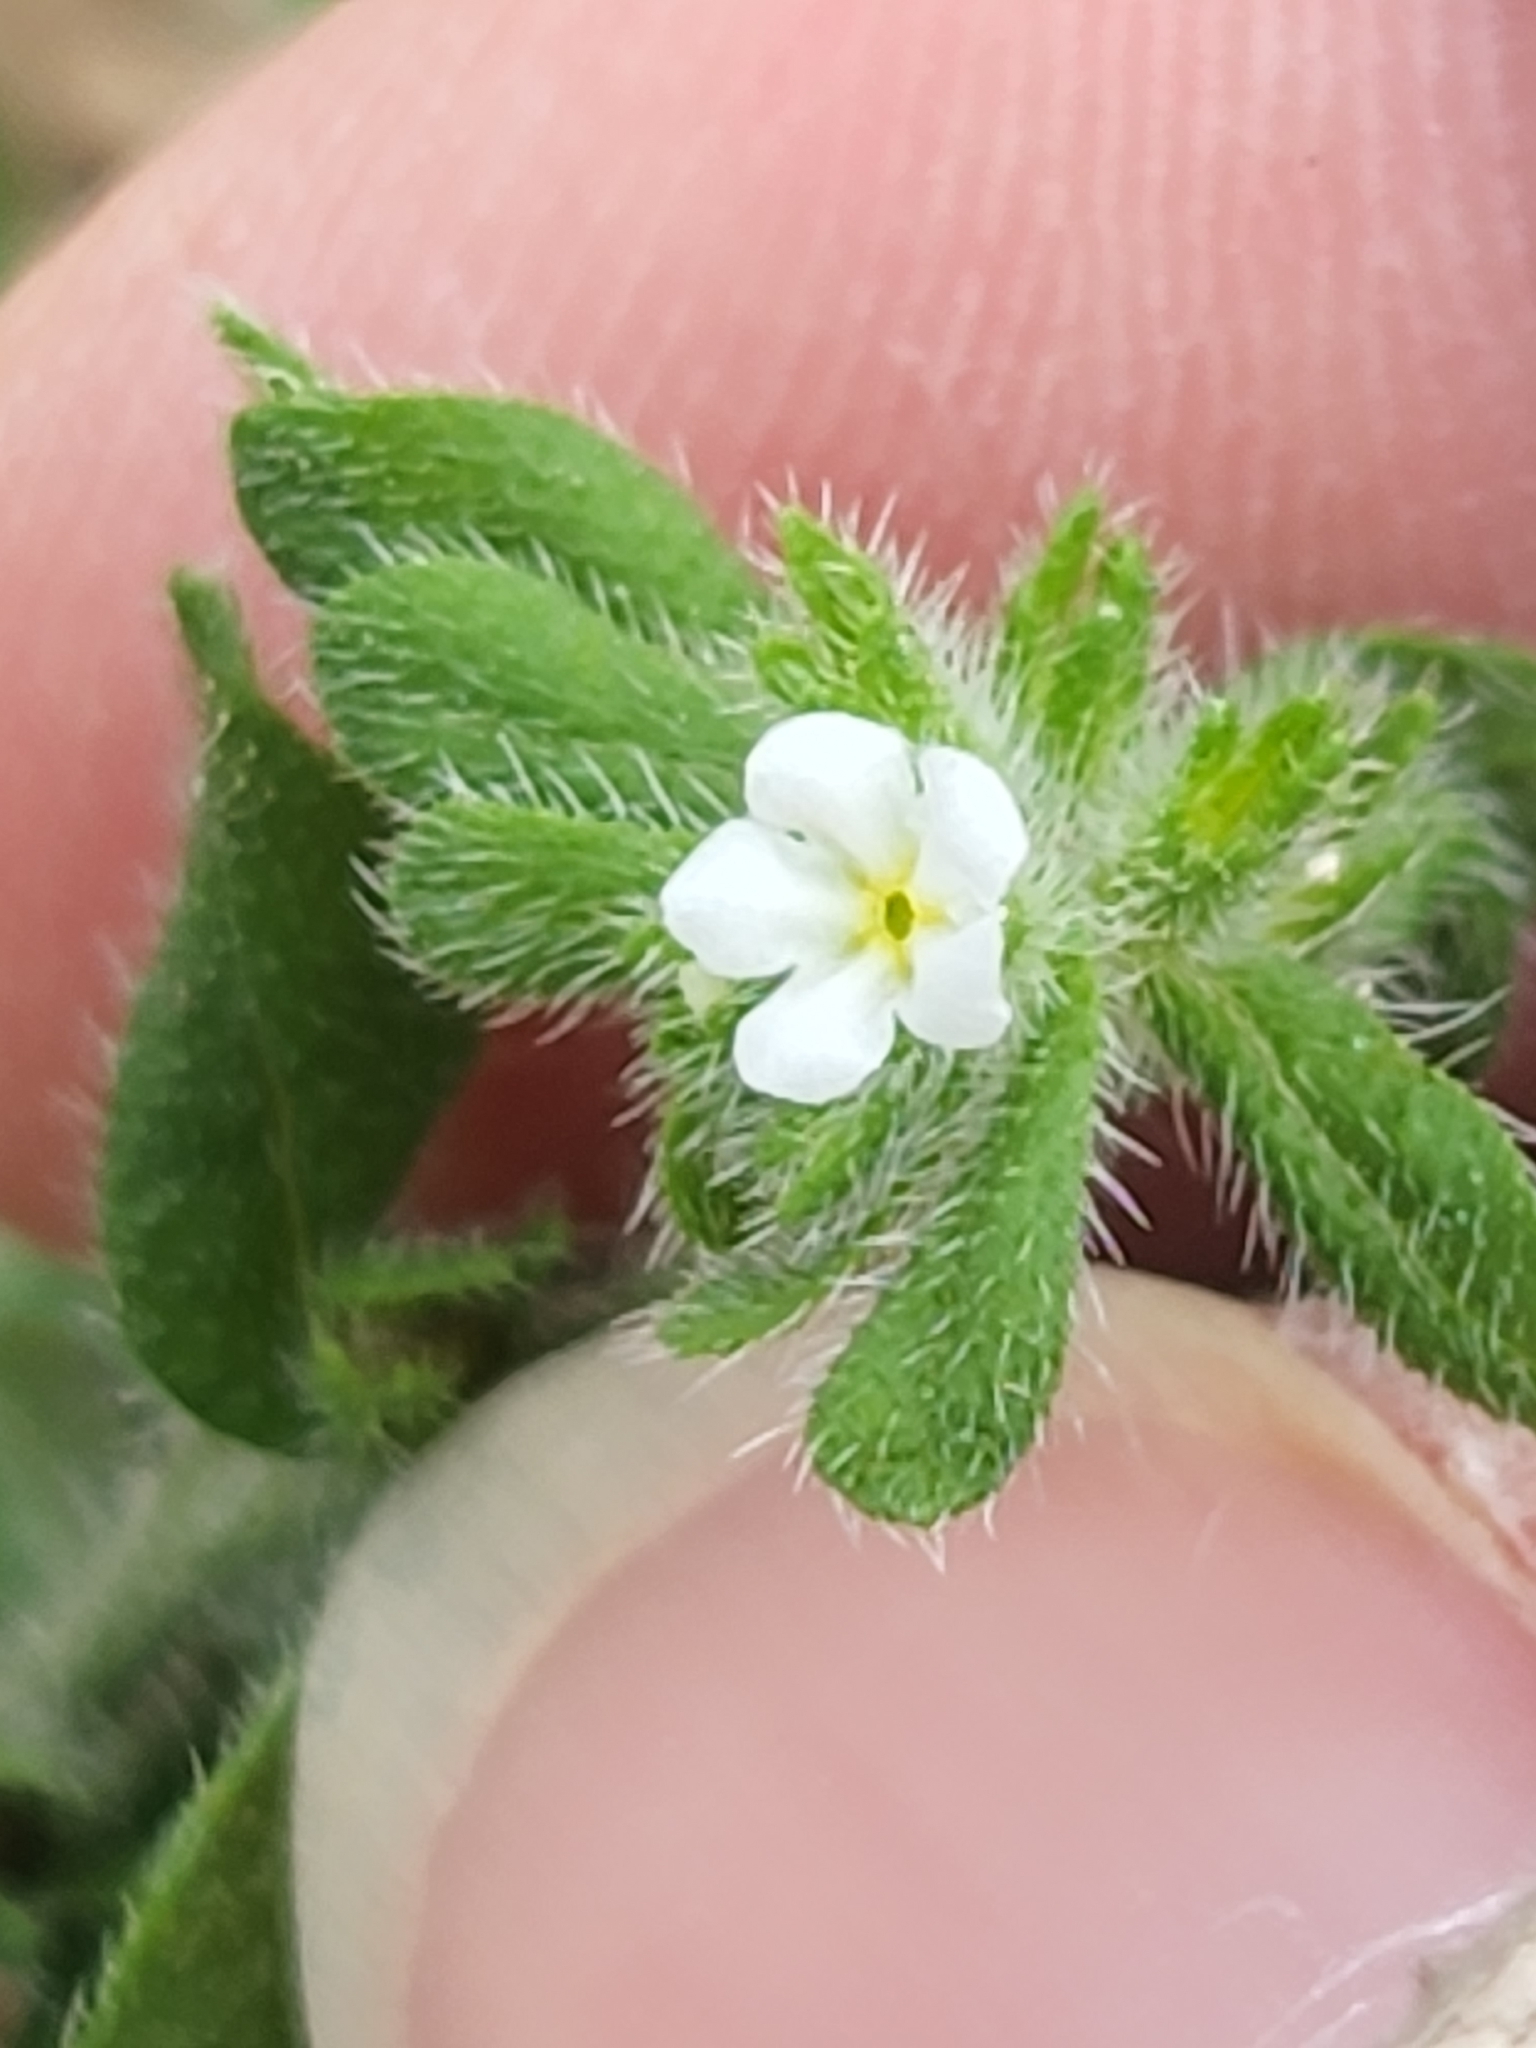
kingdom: Plantae
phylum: Tracheophyta
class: Magnoliopsida
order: Boraginales
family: Boraginaceae
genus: Lithospermum
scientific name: Lithospermum matamorense
